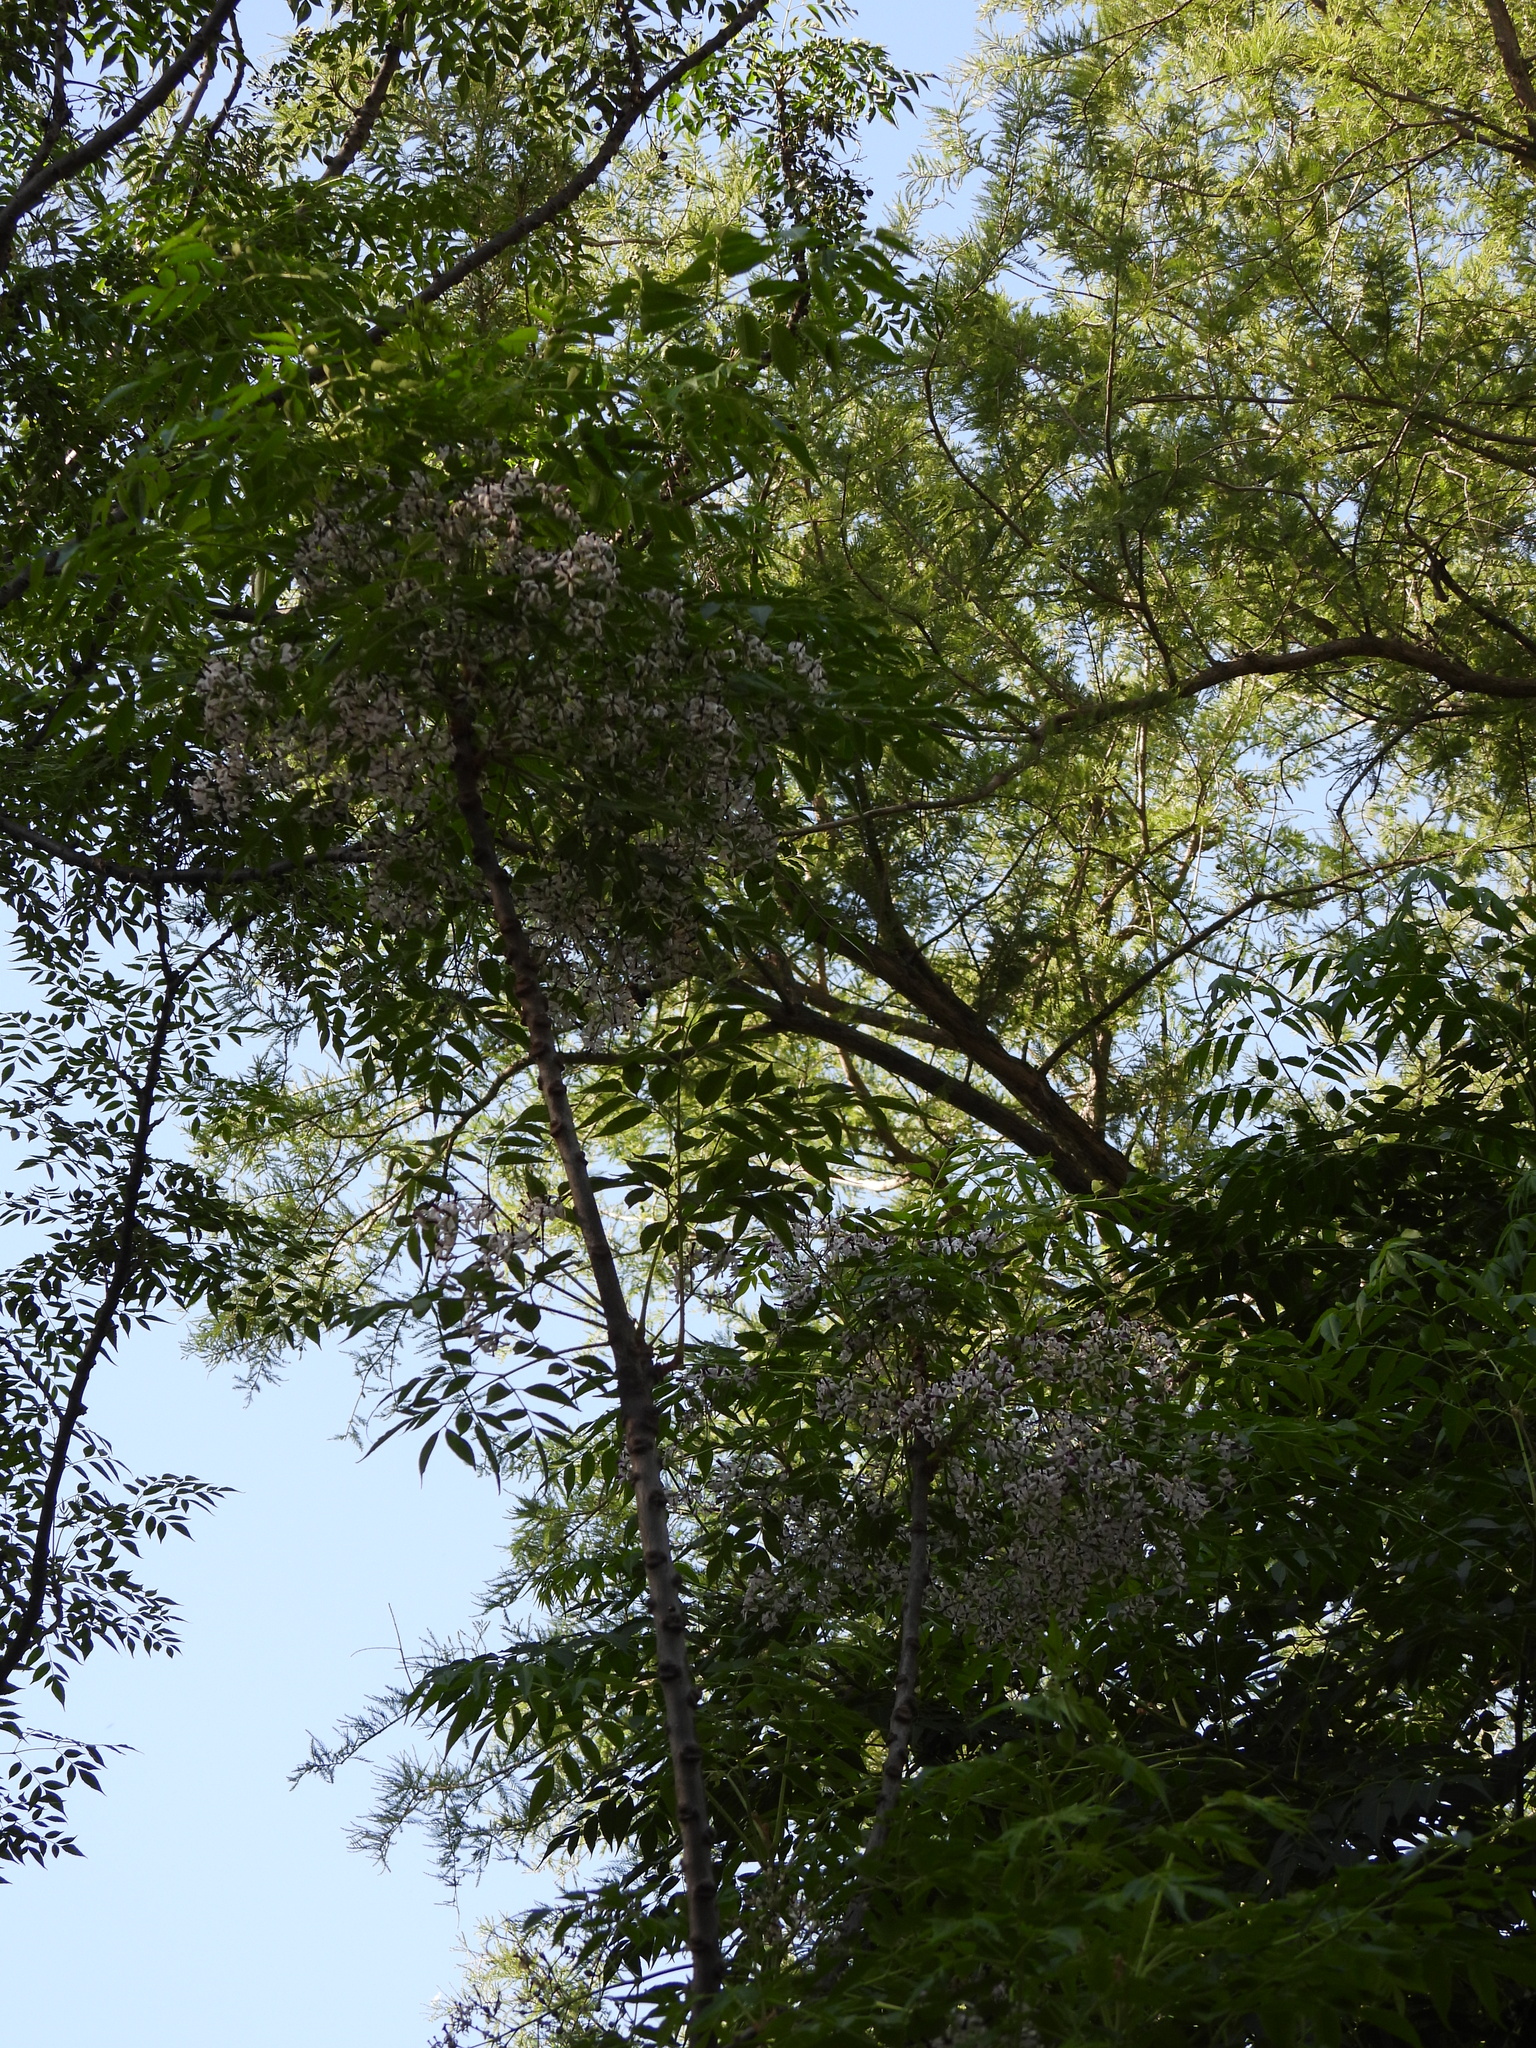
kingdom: Plantae
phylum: Tracheophyta
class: Magnoliopsida
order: Sapindales
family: Meliaceae
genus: Melia
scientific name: Melia azedarach
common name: Chinaberrytree
